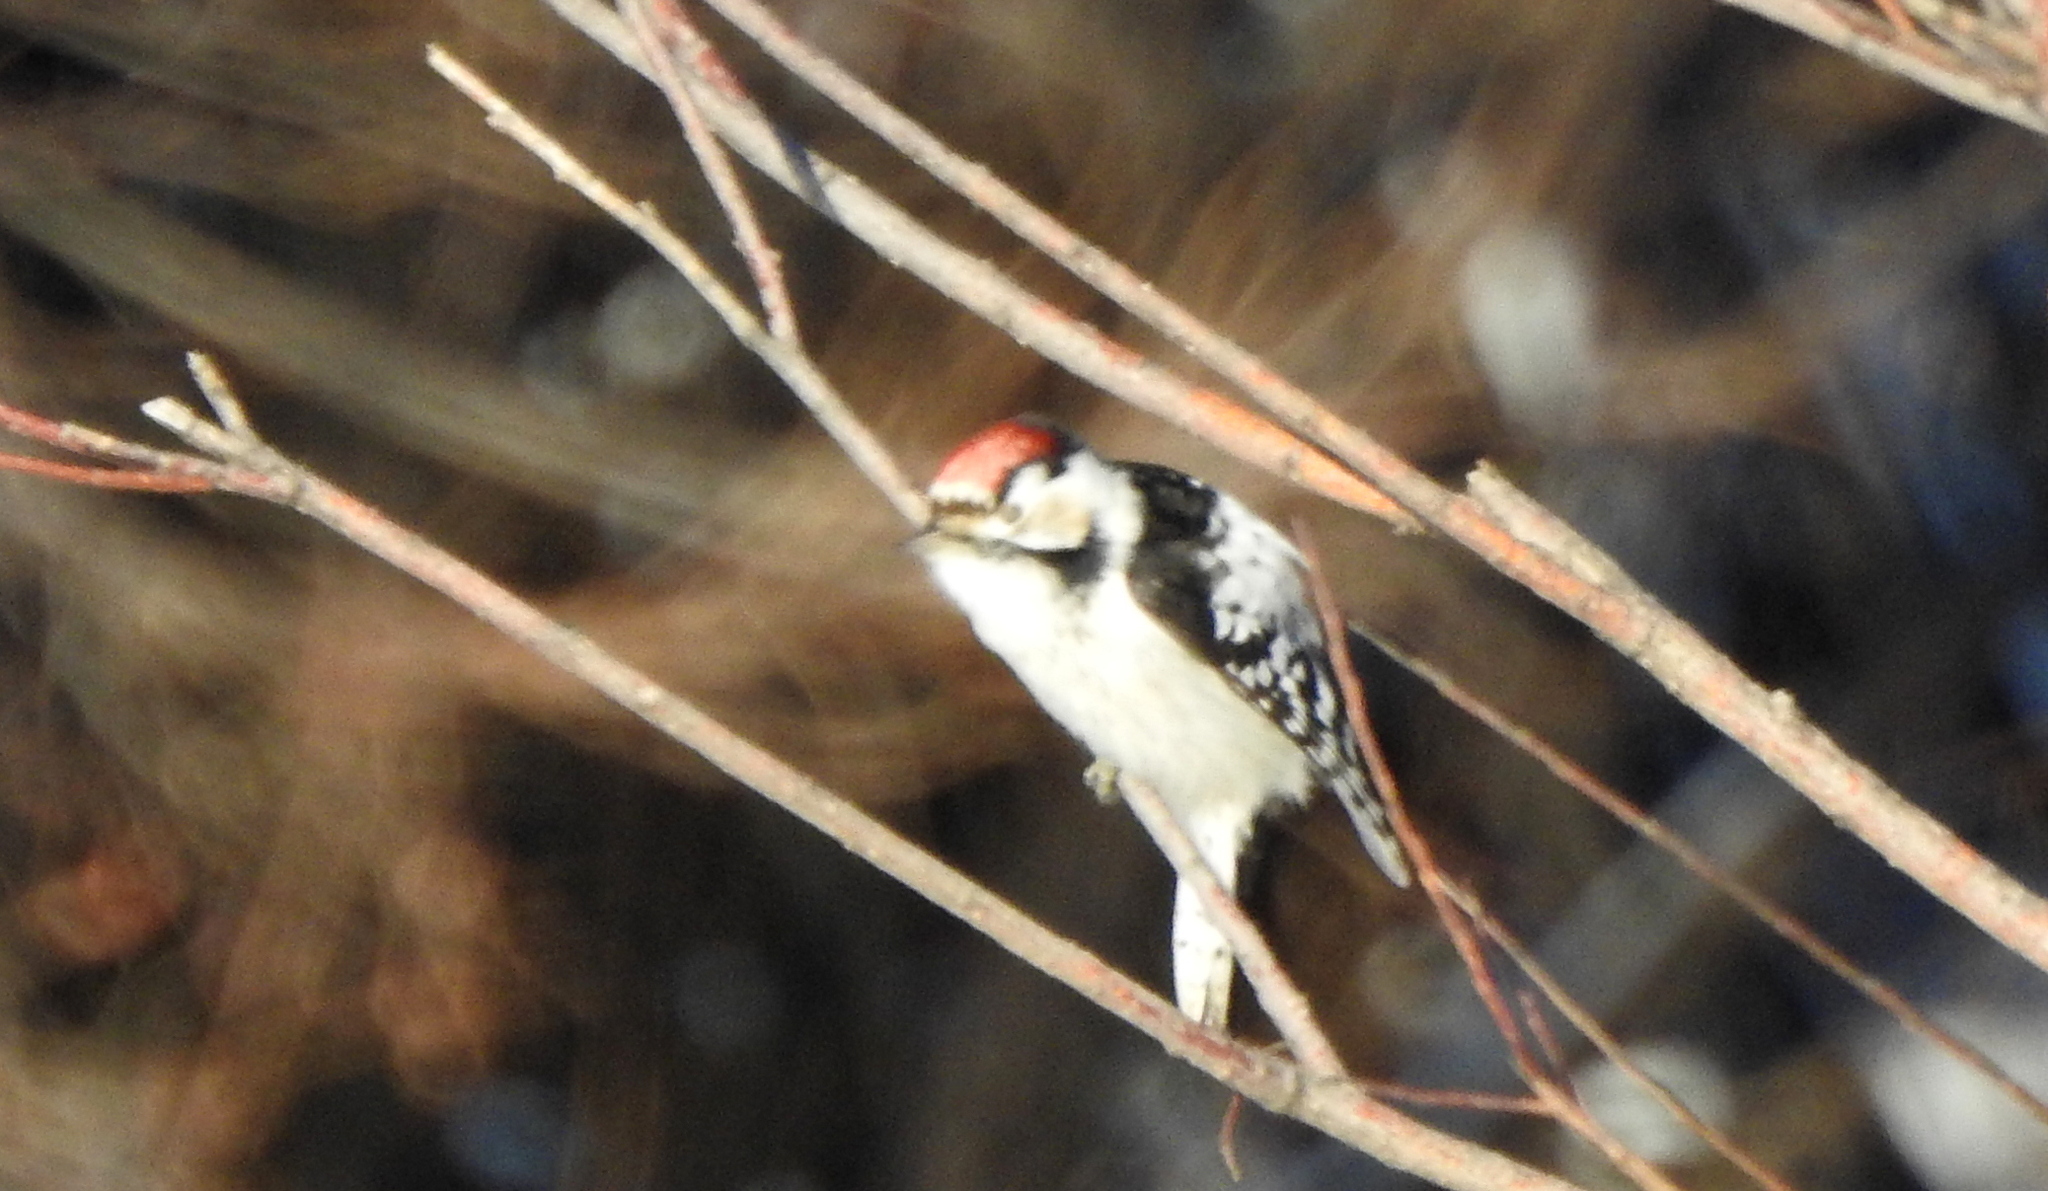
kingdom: Animalia
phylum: Chordata
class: Aves
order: Piciformes
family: Picidae
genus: Dryobates
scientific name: Dryobates minor
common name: Lesser spotted woodpecker
